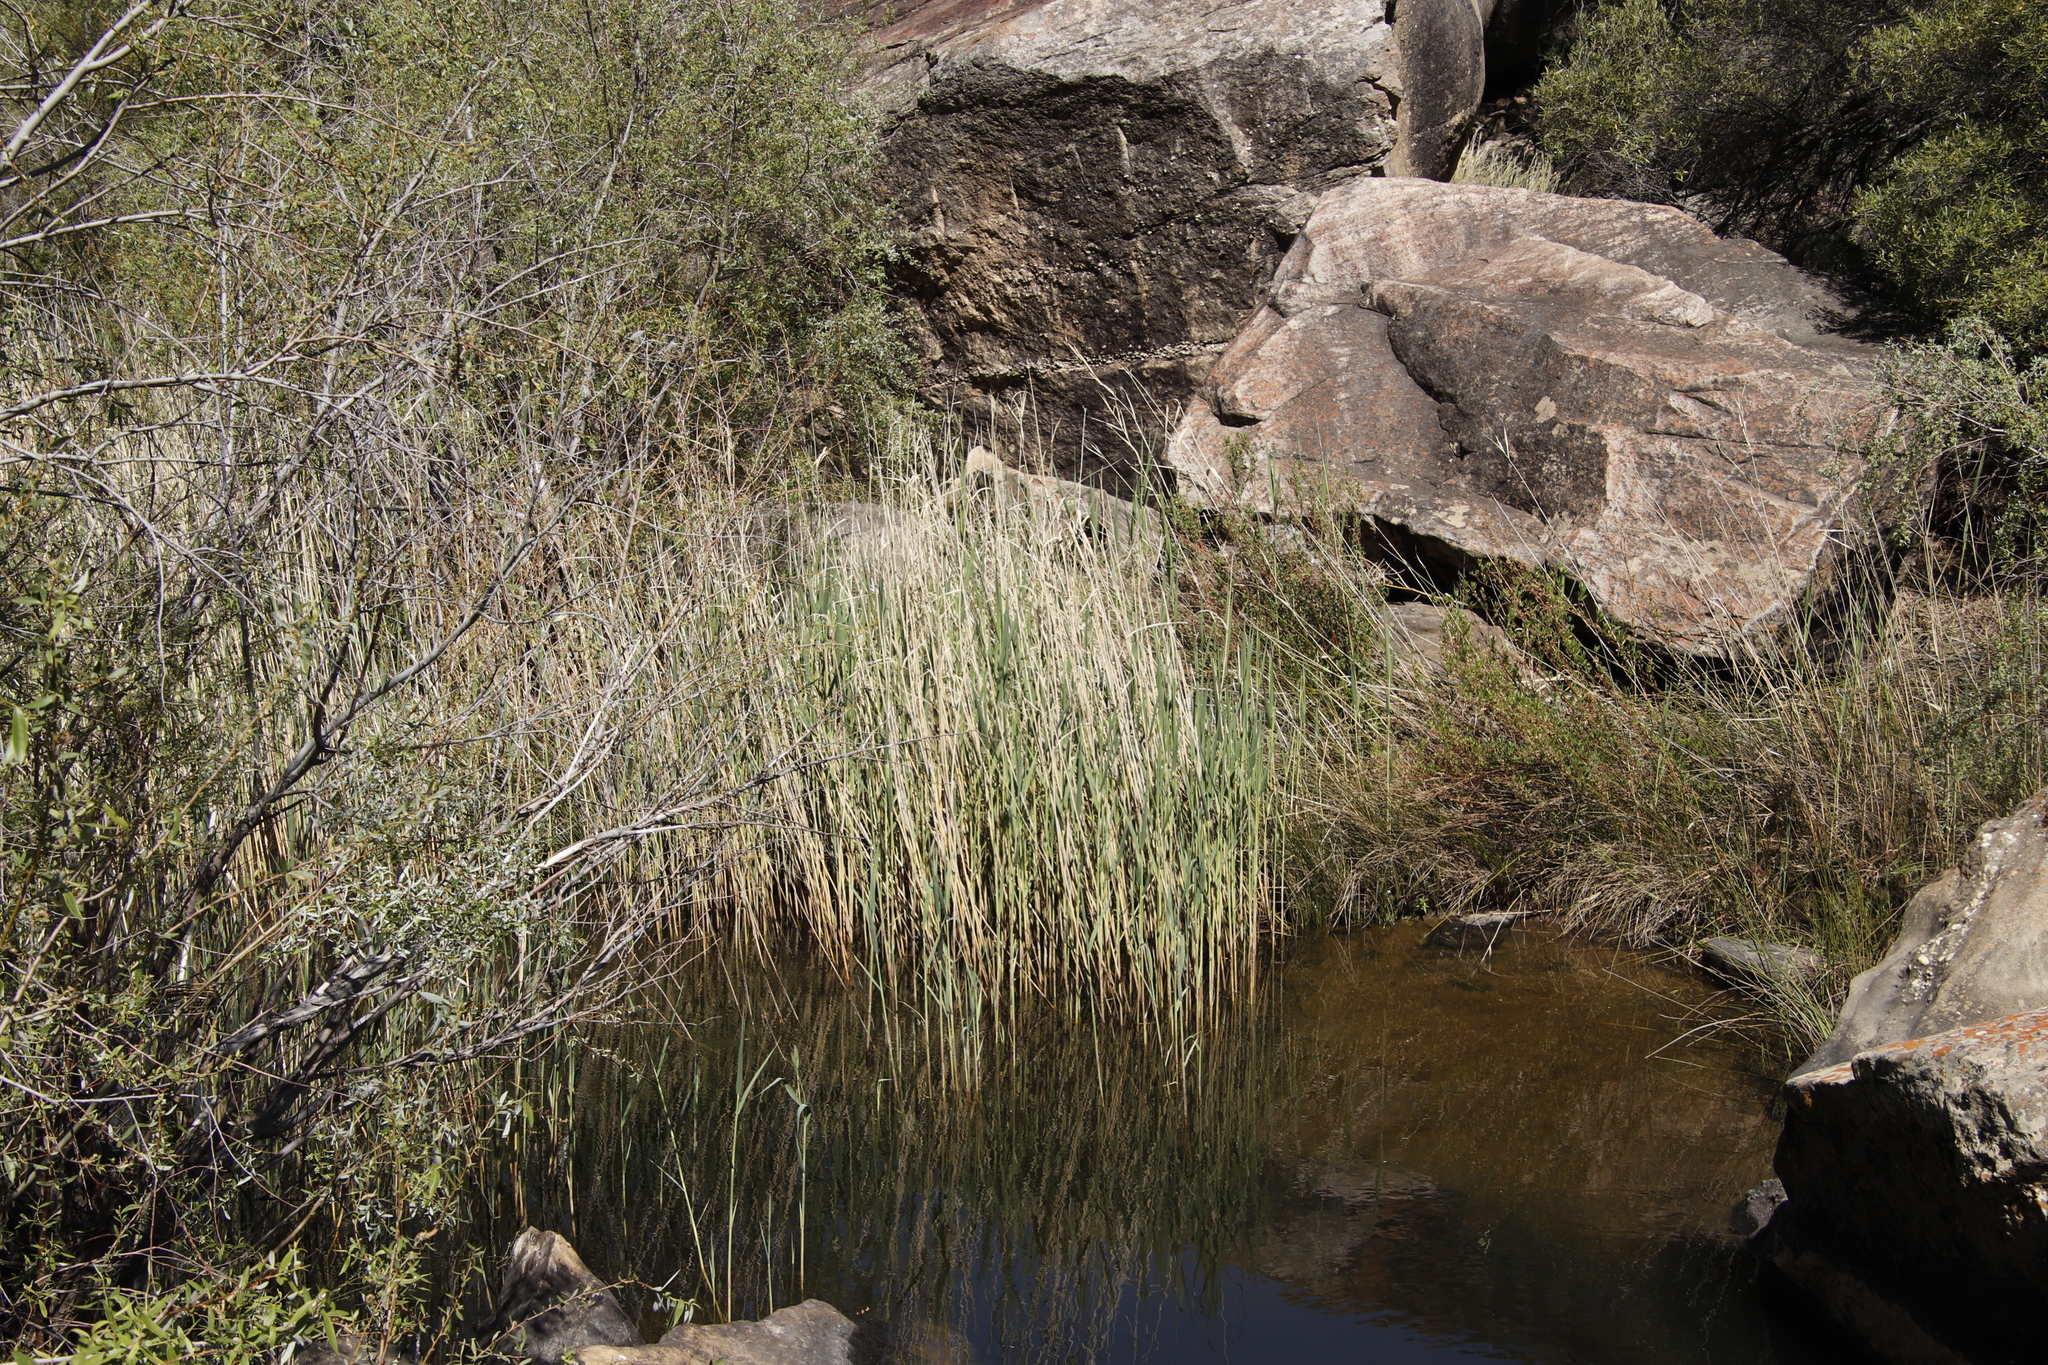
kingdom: Plantae
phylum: Tracheophyta
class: Liliopsida
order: Poales
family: Poaceae
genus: Phragmites
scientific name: Phragmites australis
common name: Common reed
